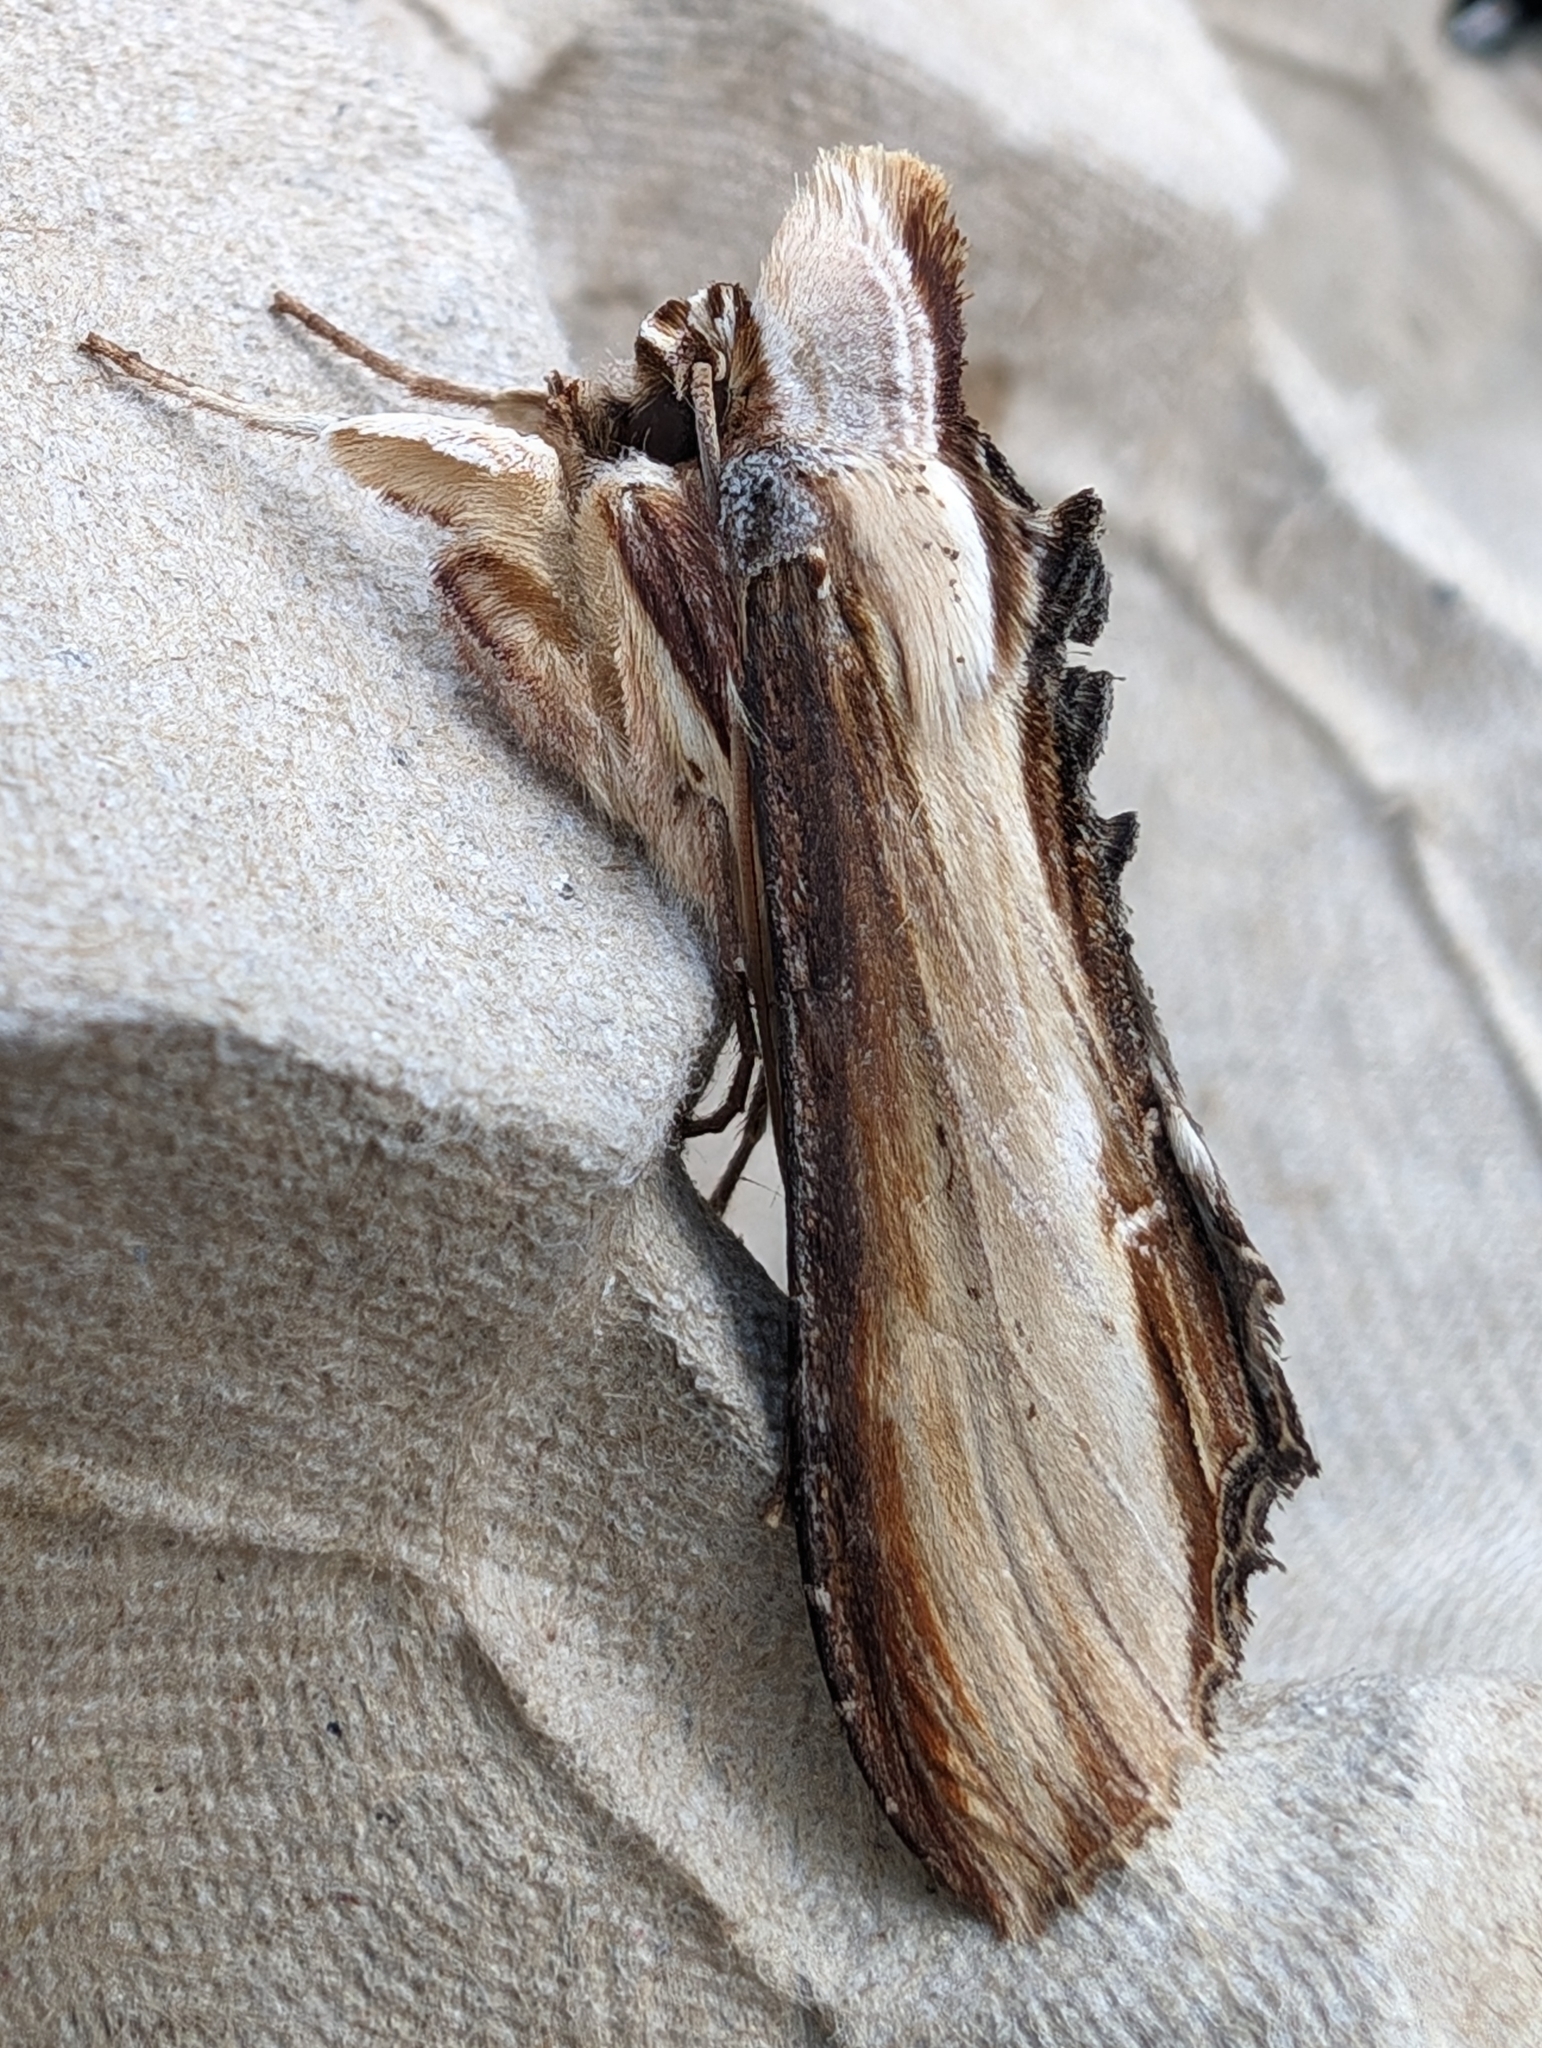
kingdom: Animalia
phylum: Arthropoda
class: Insecta
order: Lepidoptera
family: Noctuidae
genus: Cucullia
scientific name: Cucullia verbasci
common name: Mullein
